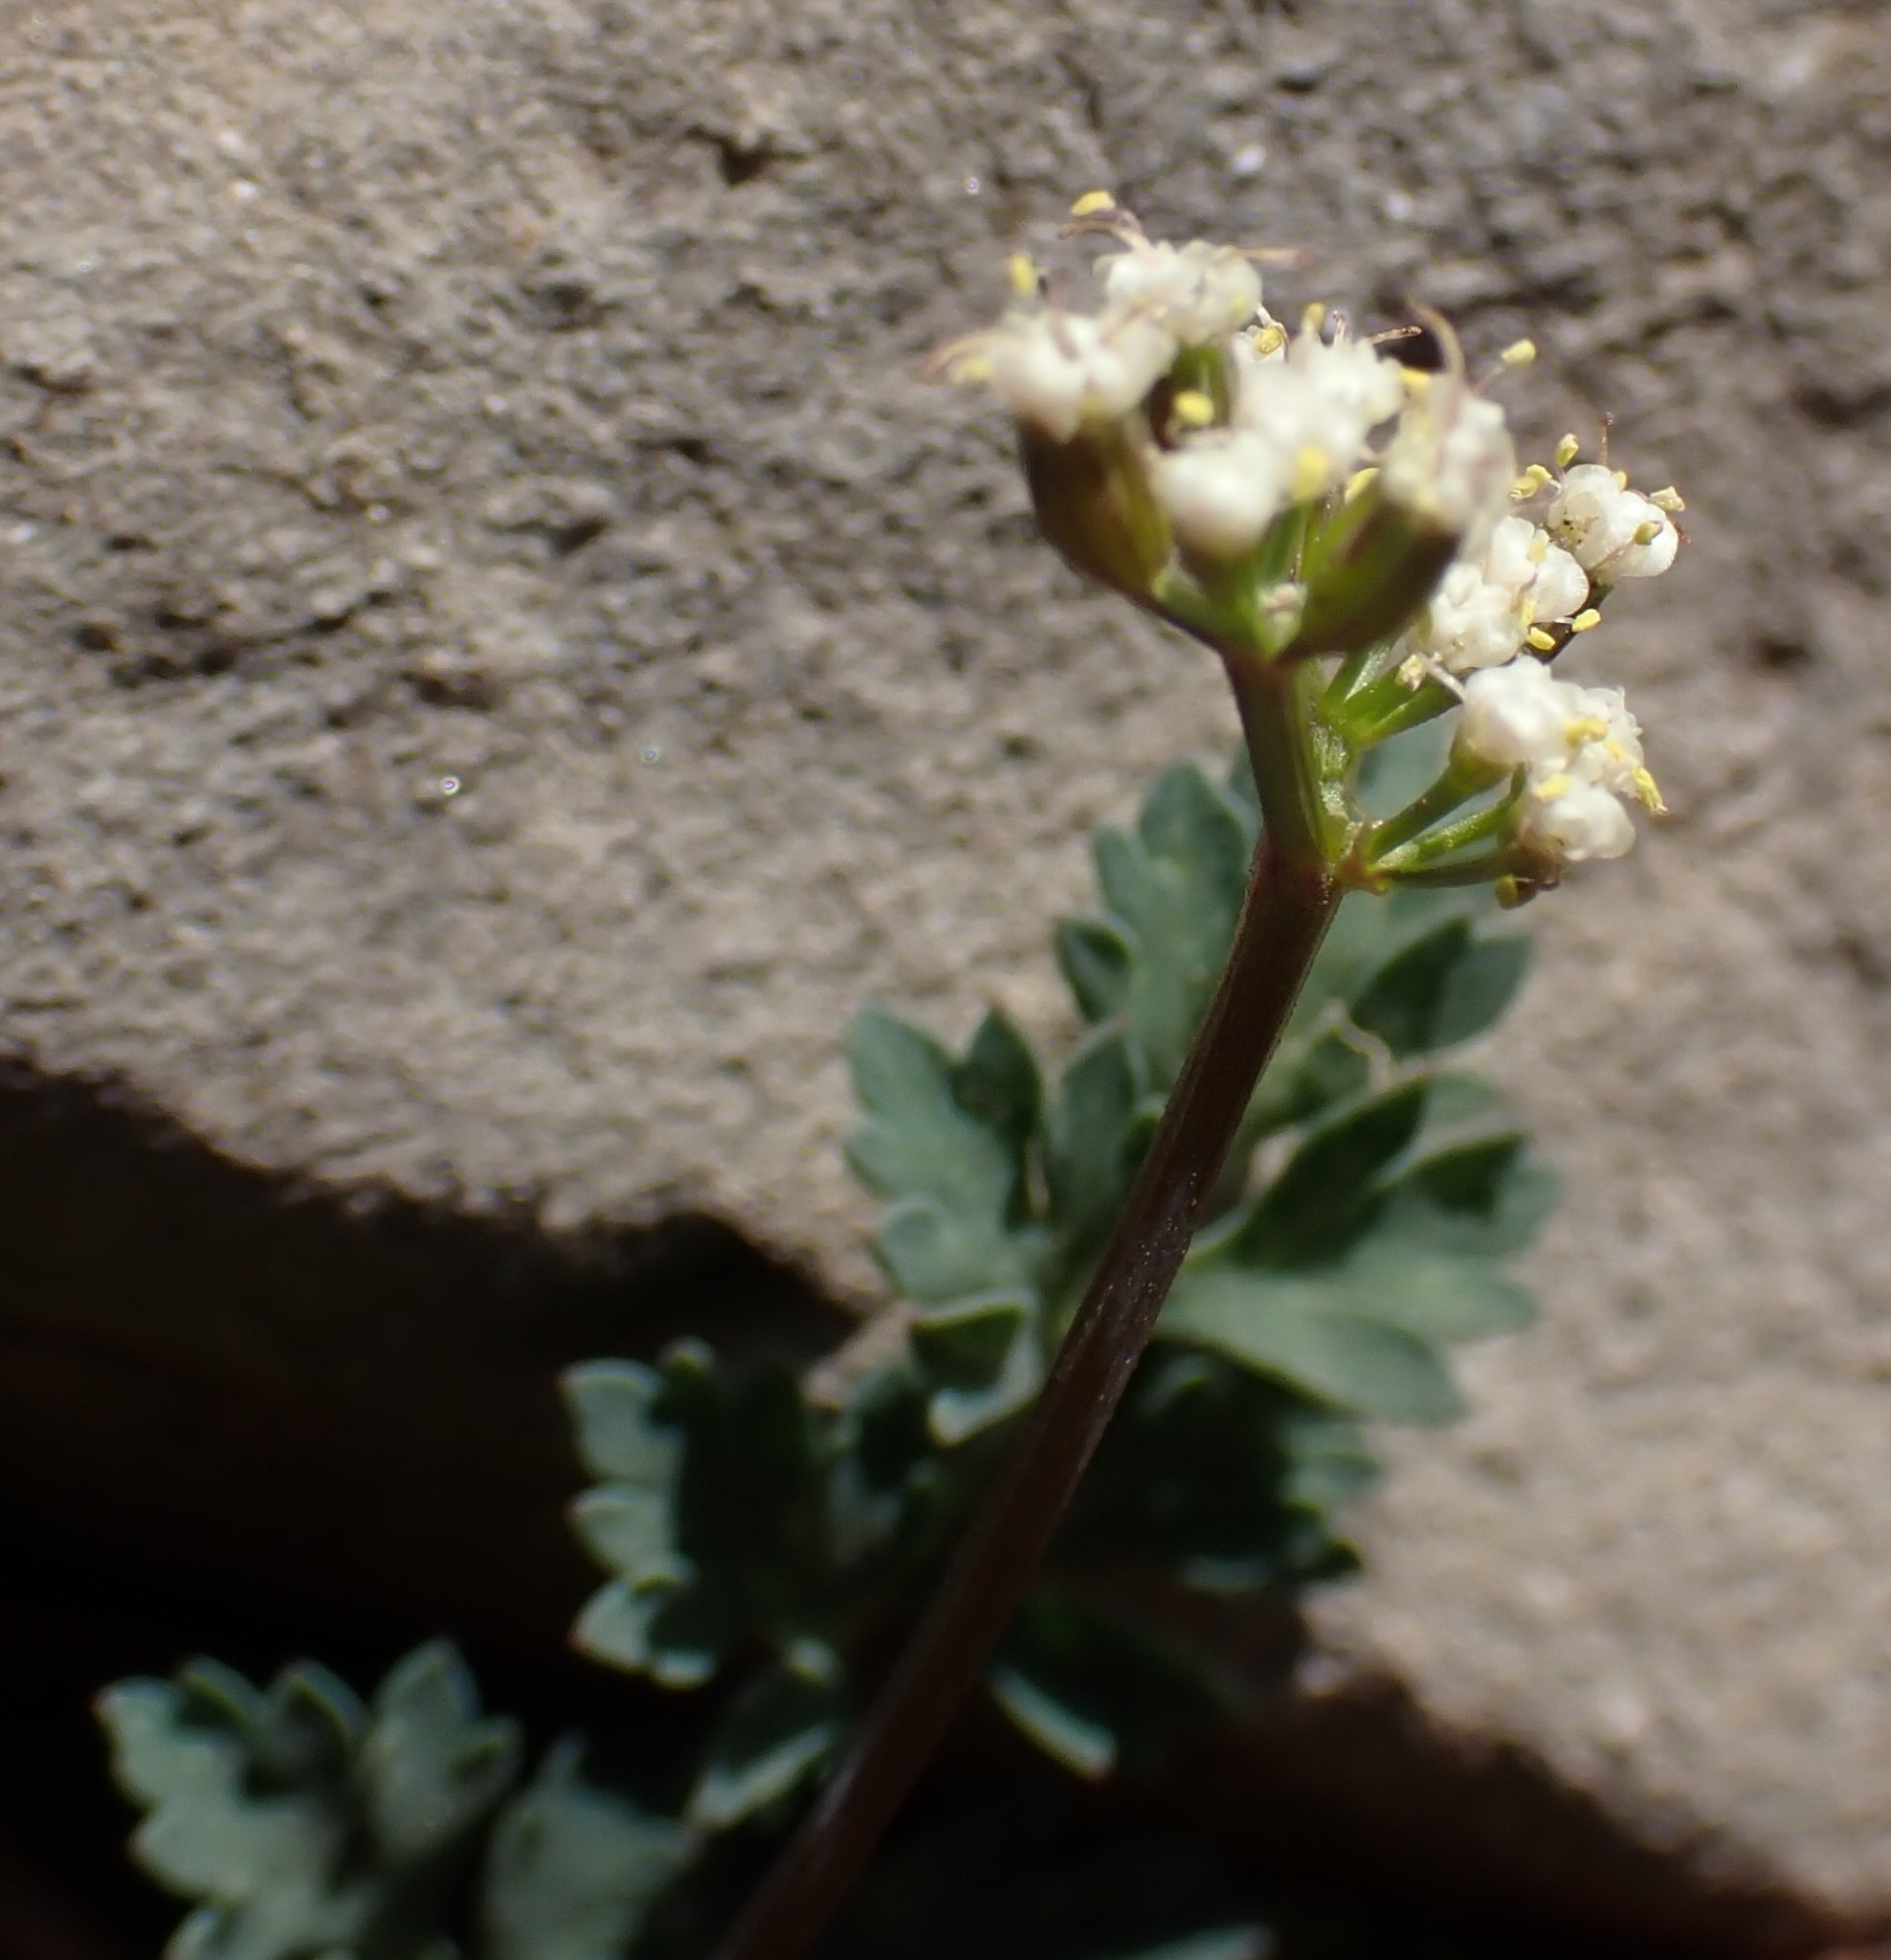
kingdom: Plantae
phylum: Tracheophyta
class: Magnoliopsida
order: Apiales
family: Apiaceae
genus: Lomatium
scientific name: Lomatium martindalei
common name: Cascade desert-parsley
